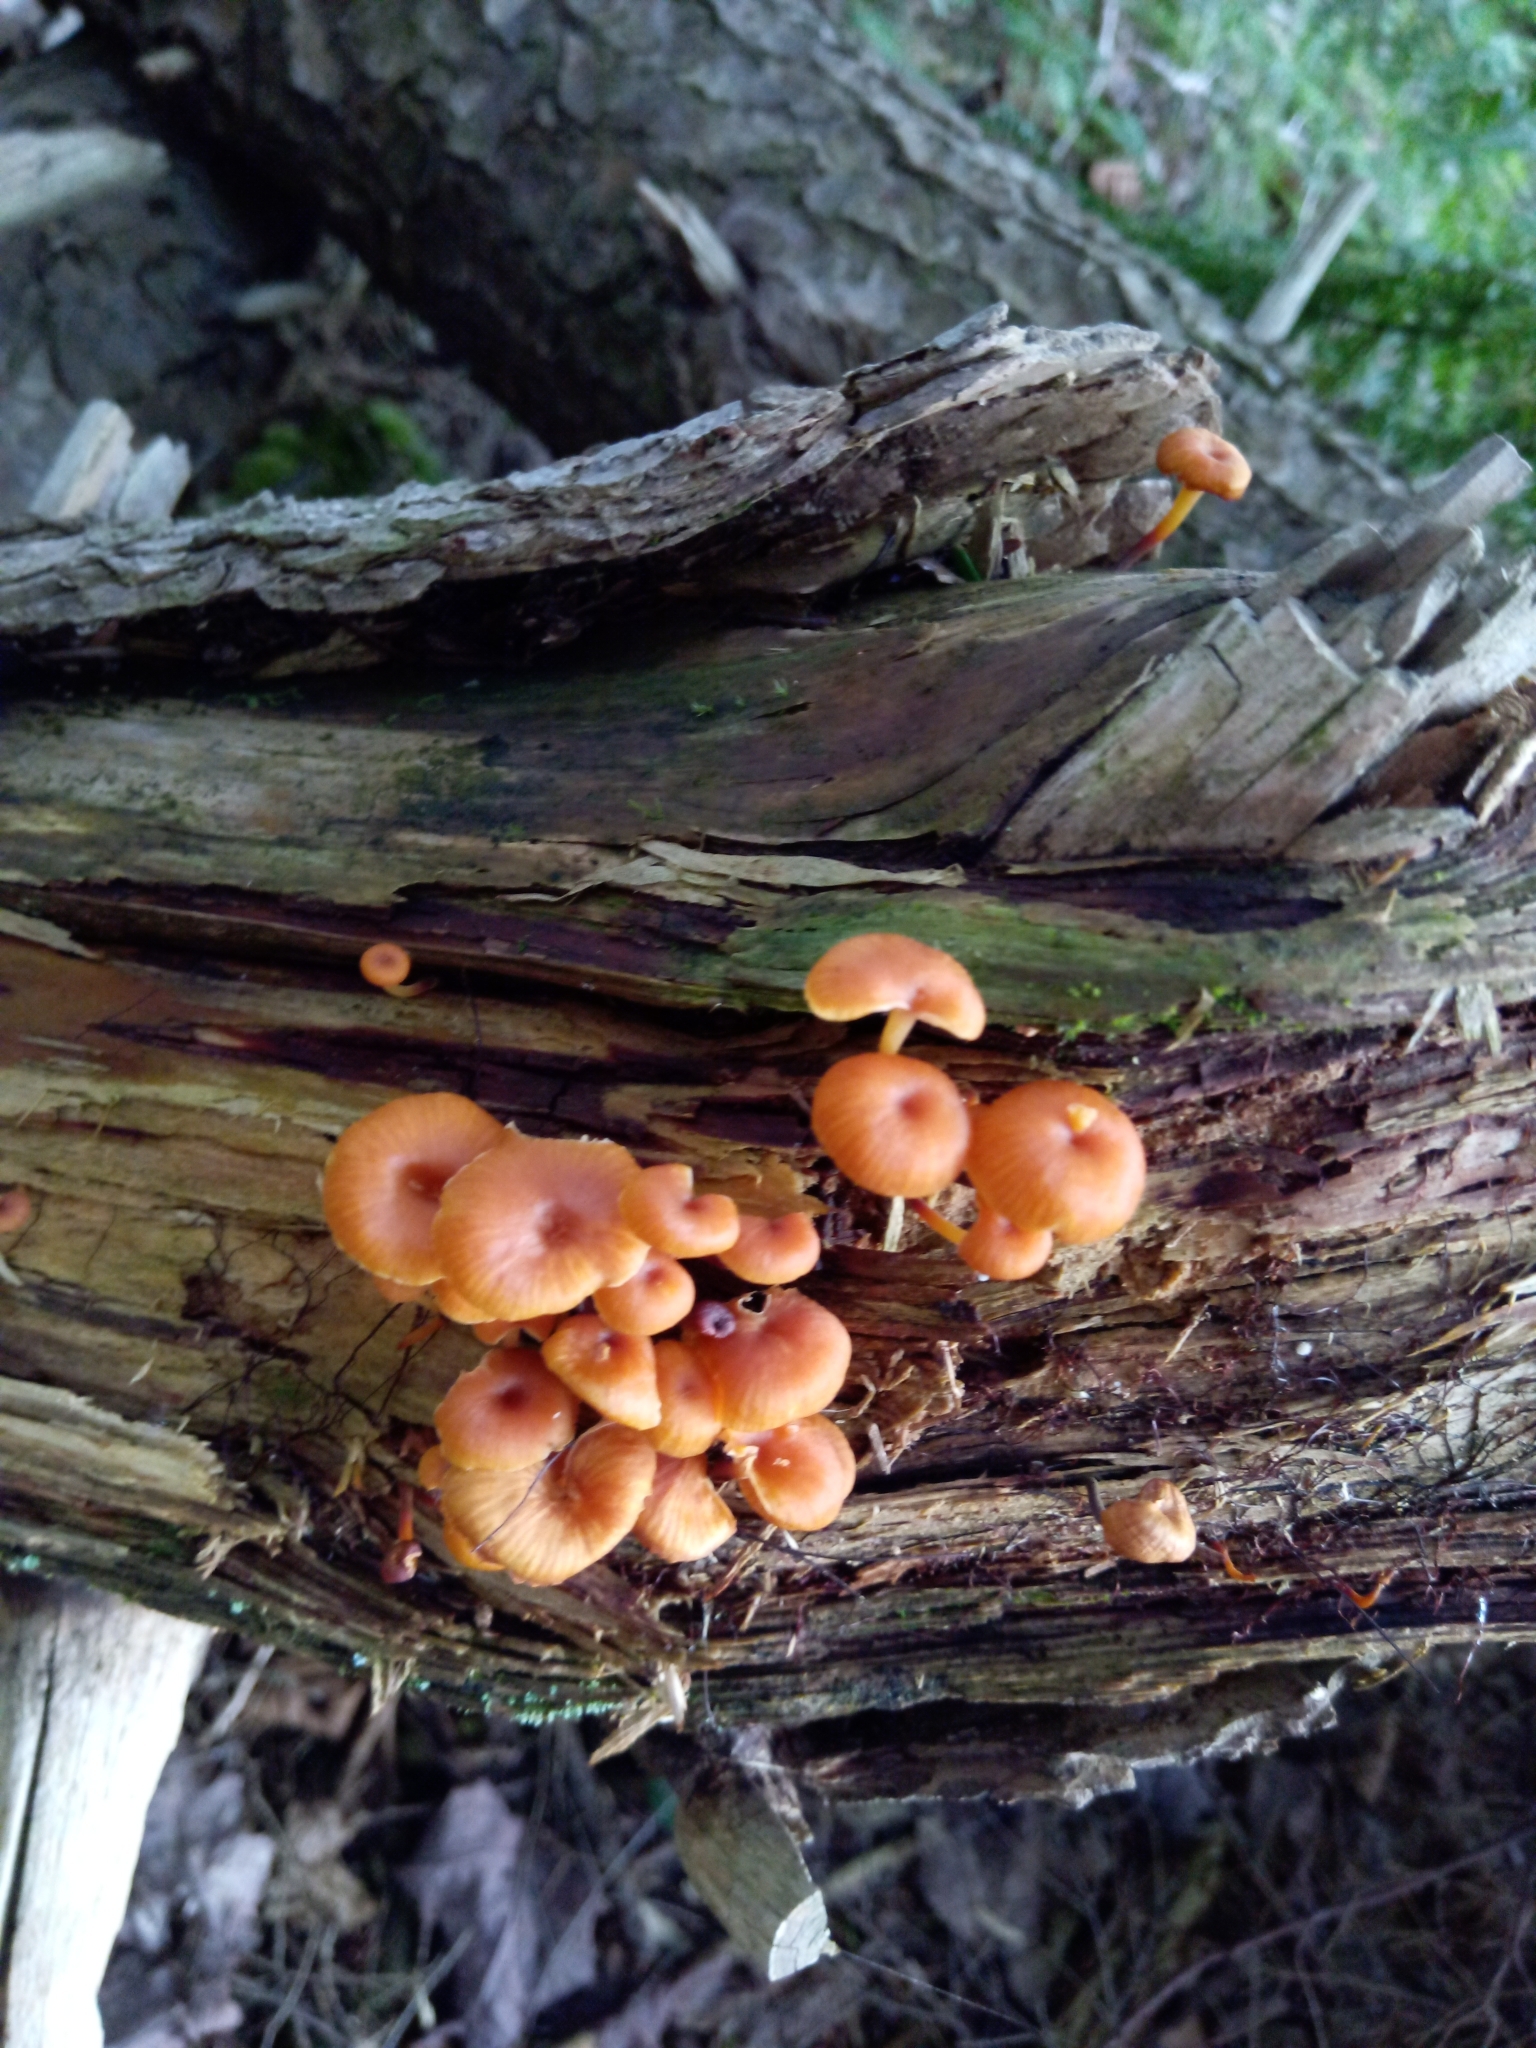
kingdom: Fungi
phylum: Basidiomycota
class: Agaricomycetes
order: Agaricales
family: Mycenaceae
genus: Xeromphalina
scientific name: Xeromphalina campanella
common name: Pinewood gingertail
